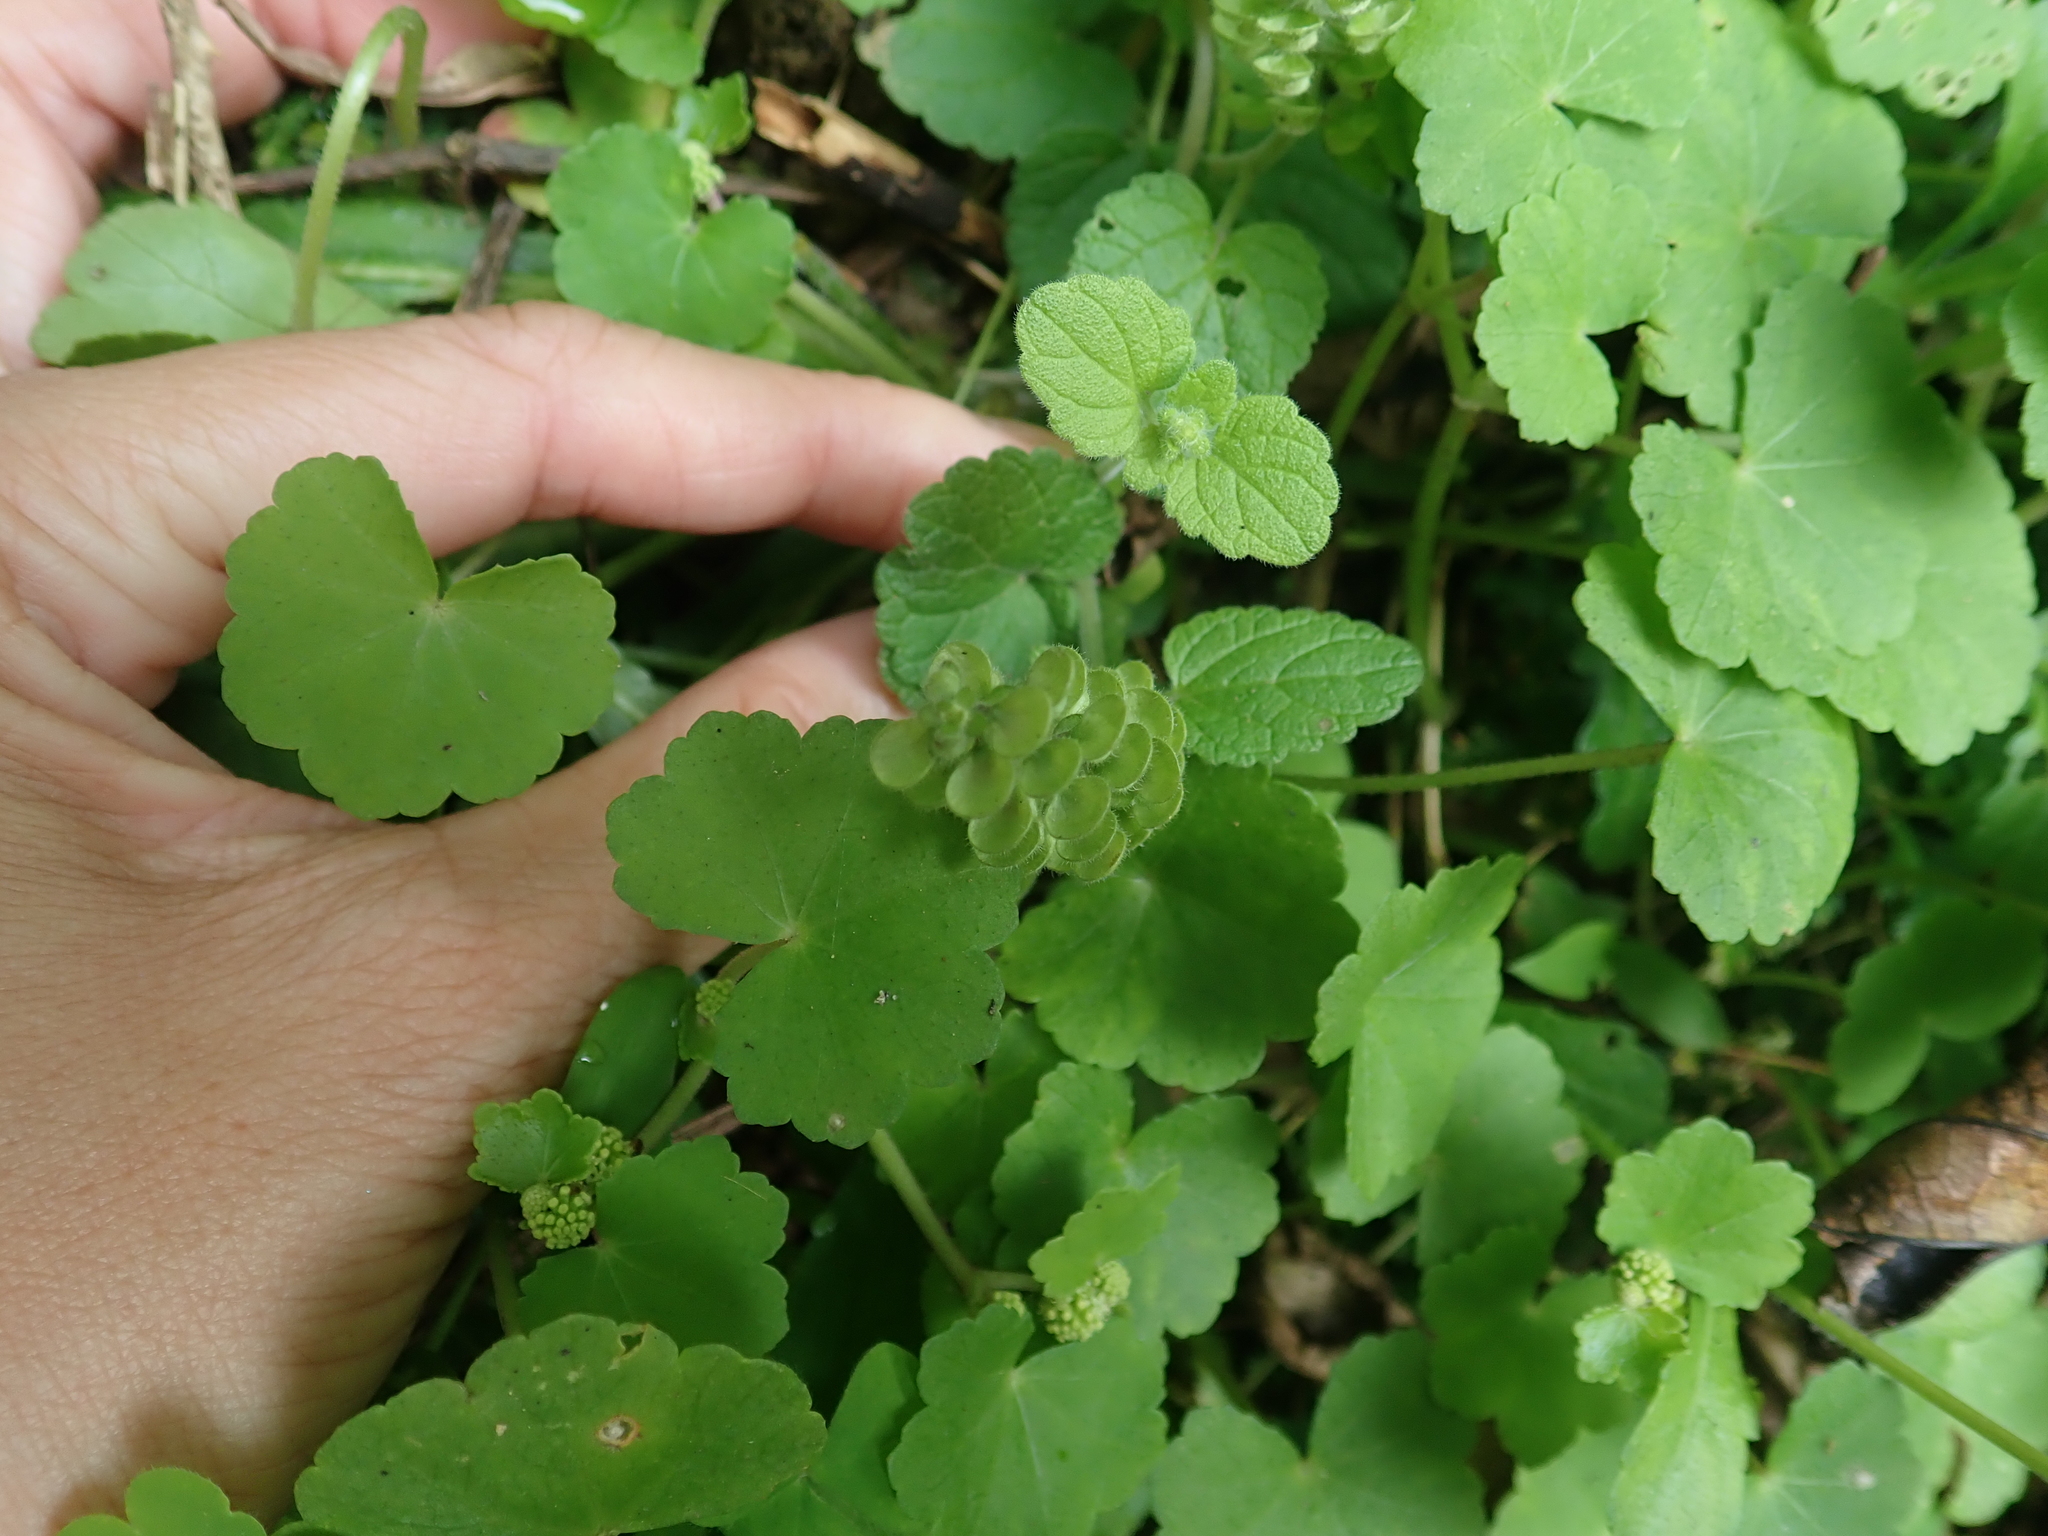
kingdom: Plantae
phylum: Tracheophyta
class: Magnoliopsida
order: Lamiales
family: Lamiaceae
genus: Scutellaria
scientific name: Scutellaria indica
